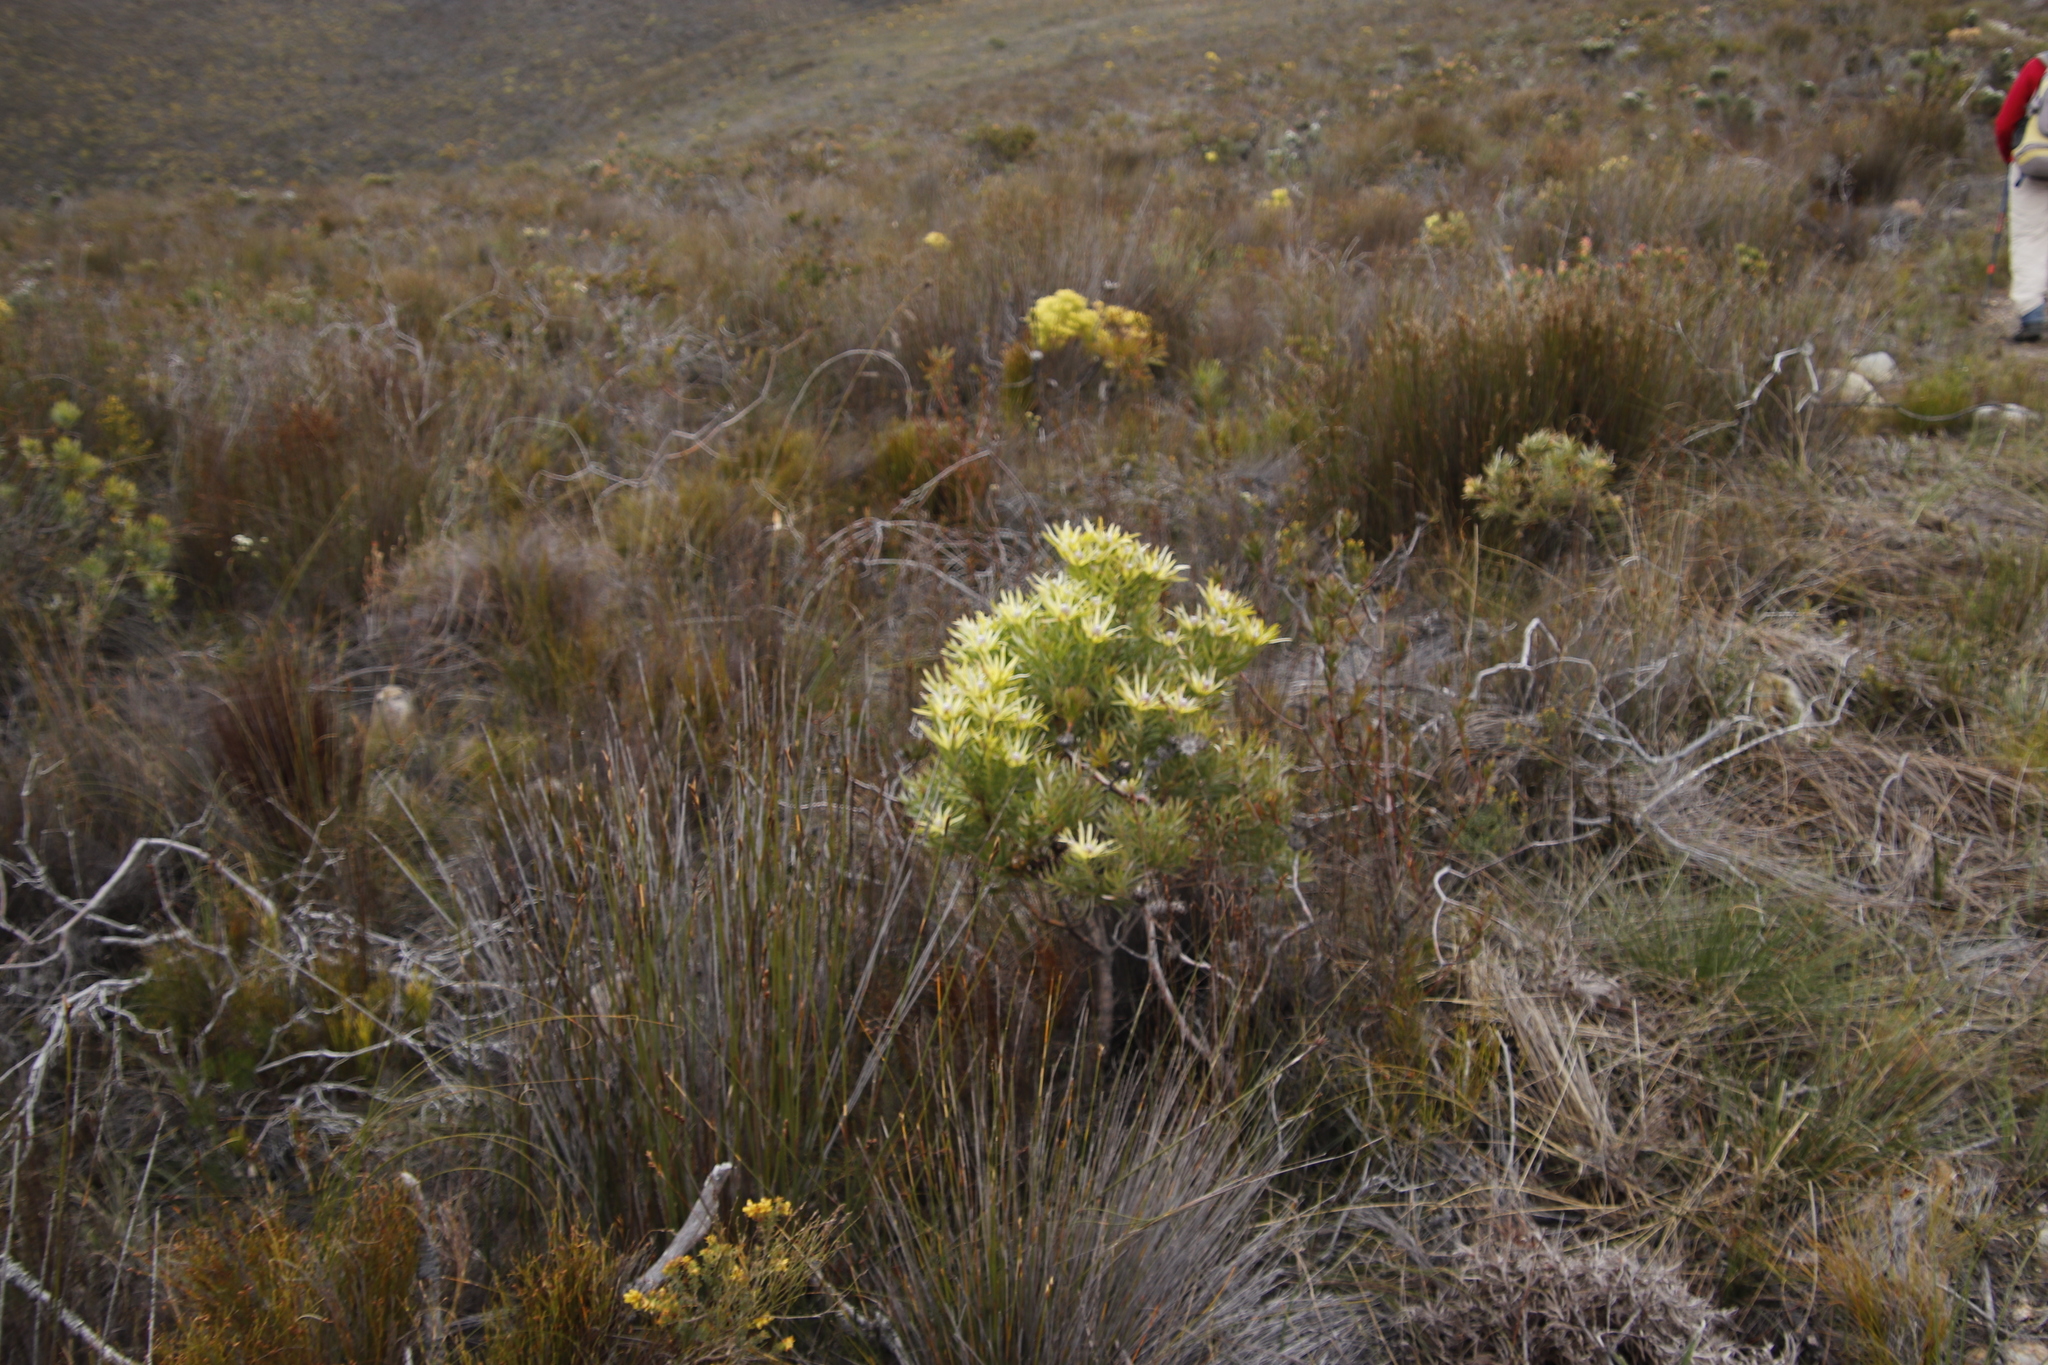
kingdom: Plantae
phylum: Tracheophyta
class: Magnoliopsida
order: Proteales
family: Proteaceae
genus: Leucadendron
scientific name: Leucadendron xanthoconus
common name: Sickle-leaf conebush
